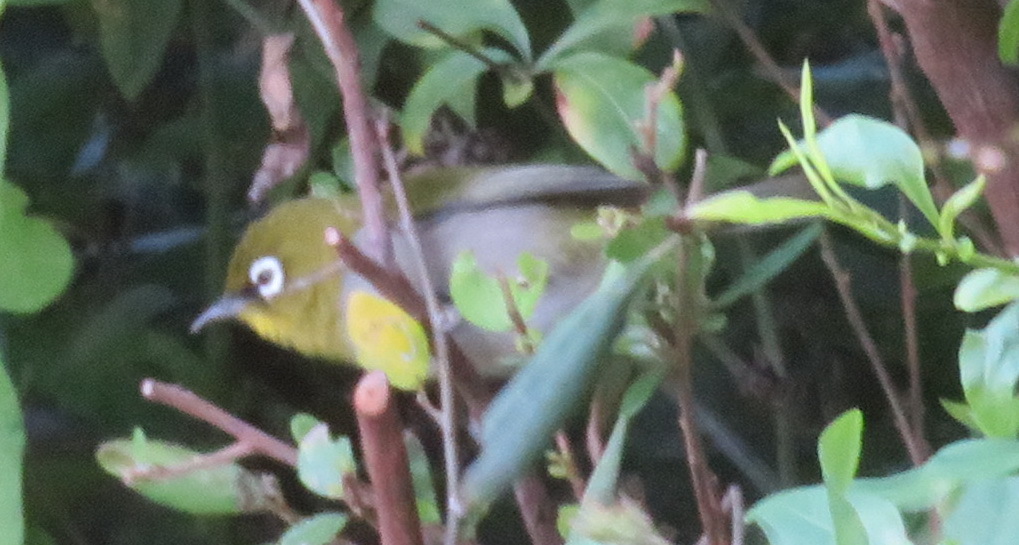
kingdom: Animalia
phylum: Chordata
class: Aves
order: Passeriformes
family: Zosteropidae
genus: Zosterops
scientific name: Zosterops virens
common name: Cape white-eye
